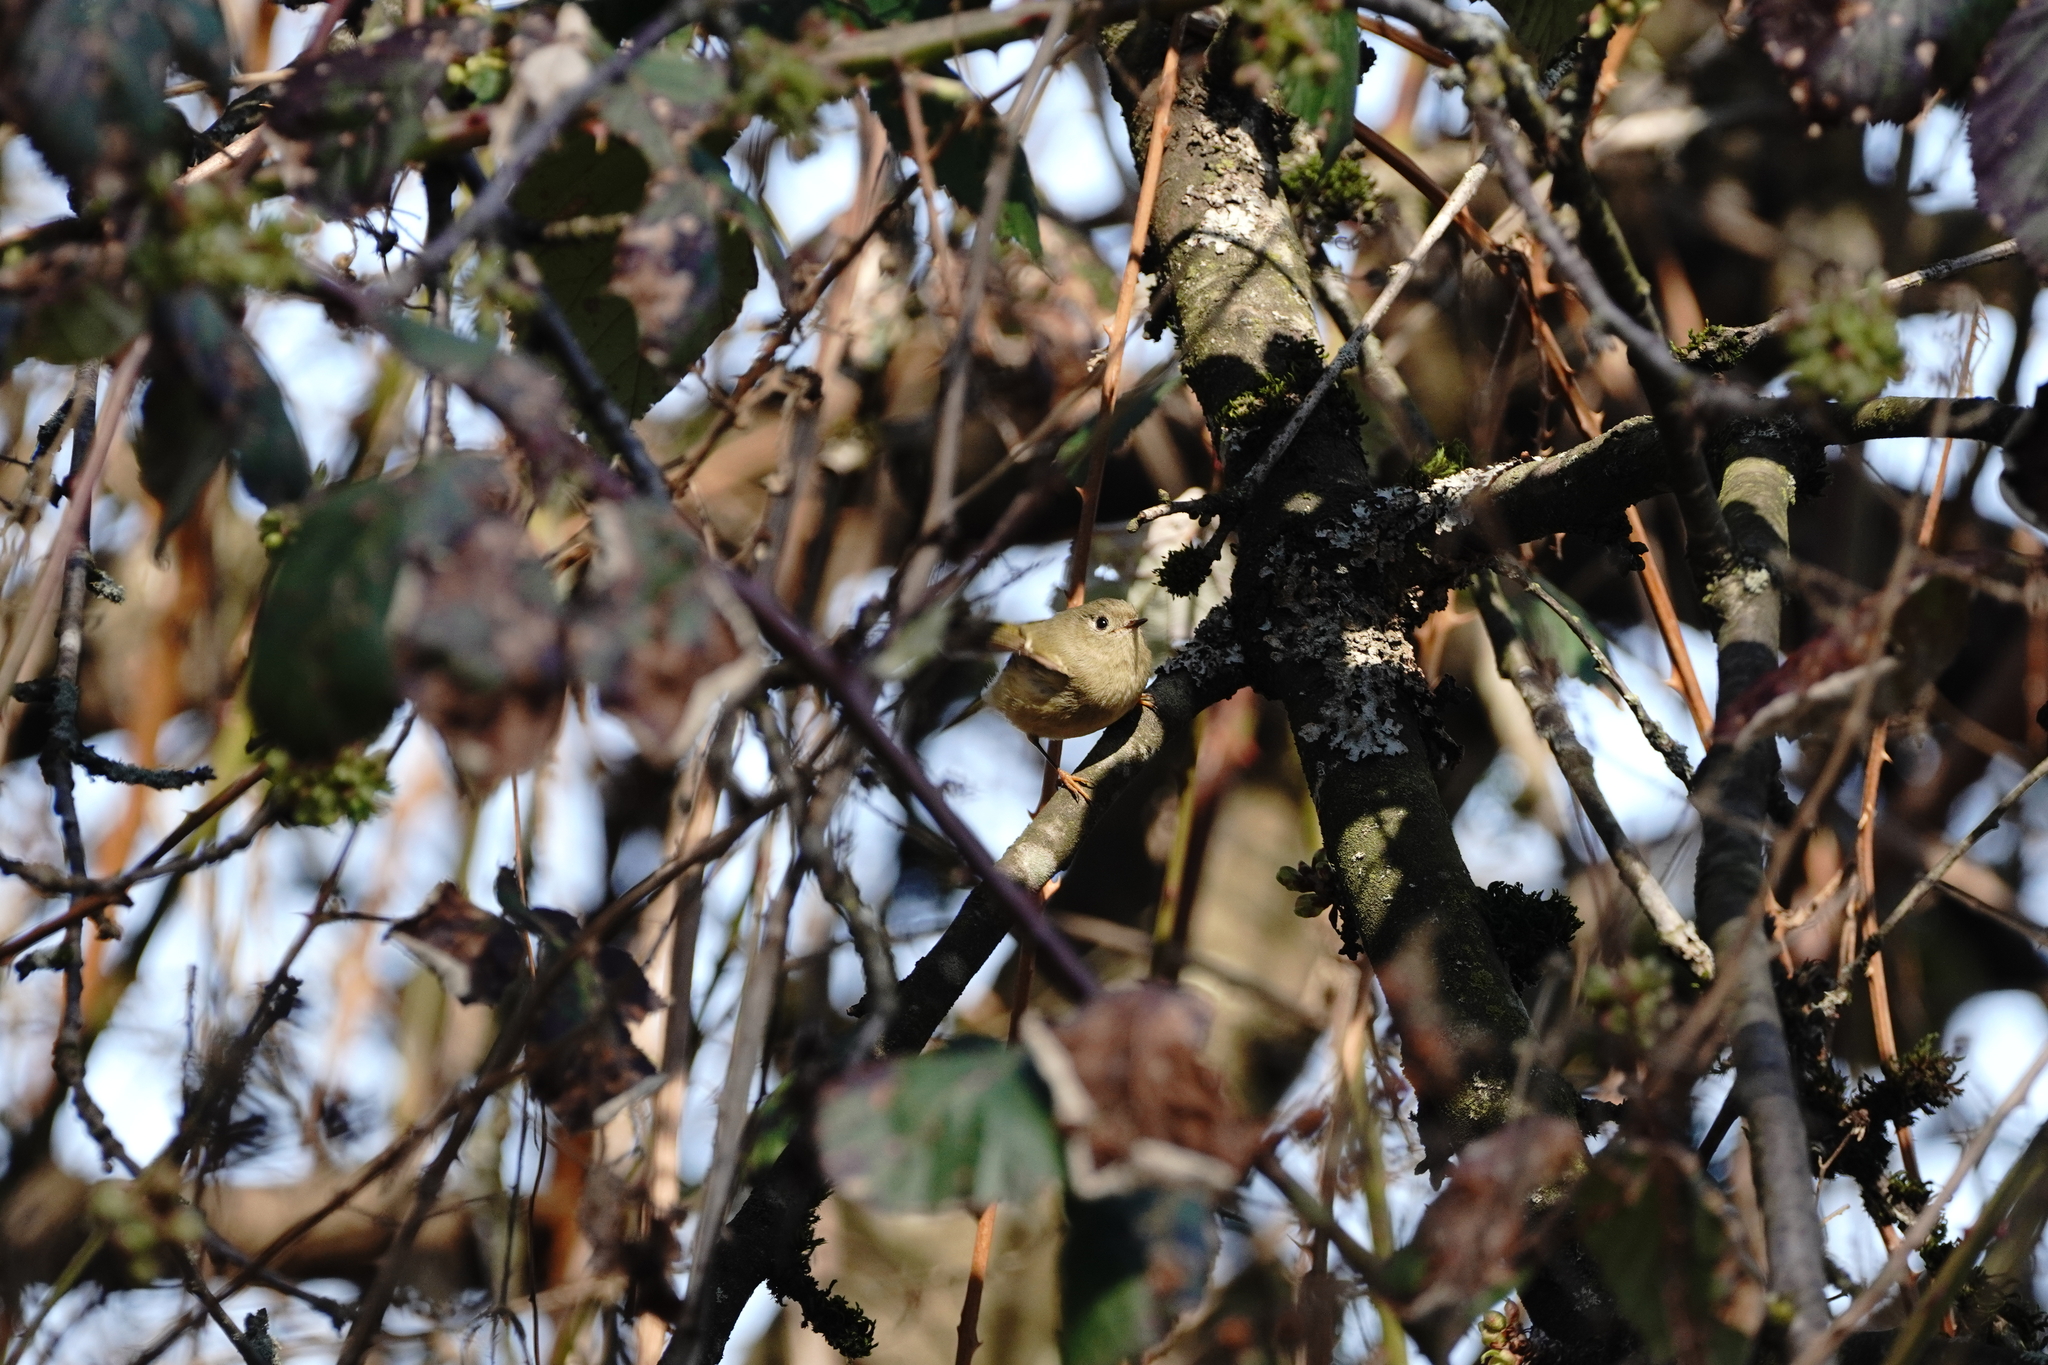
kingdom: Animalia
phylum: Chordata
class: Aves
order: Passeriformes
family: Regulidae
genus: Regulus
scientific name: Regulus calendula
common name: Ruby-crowned kinglet
